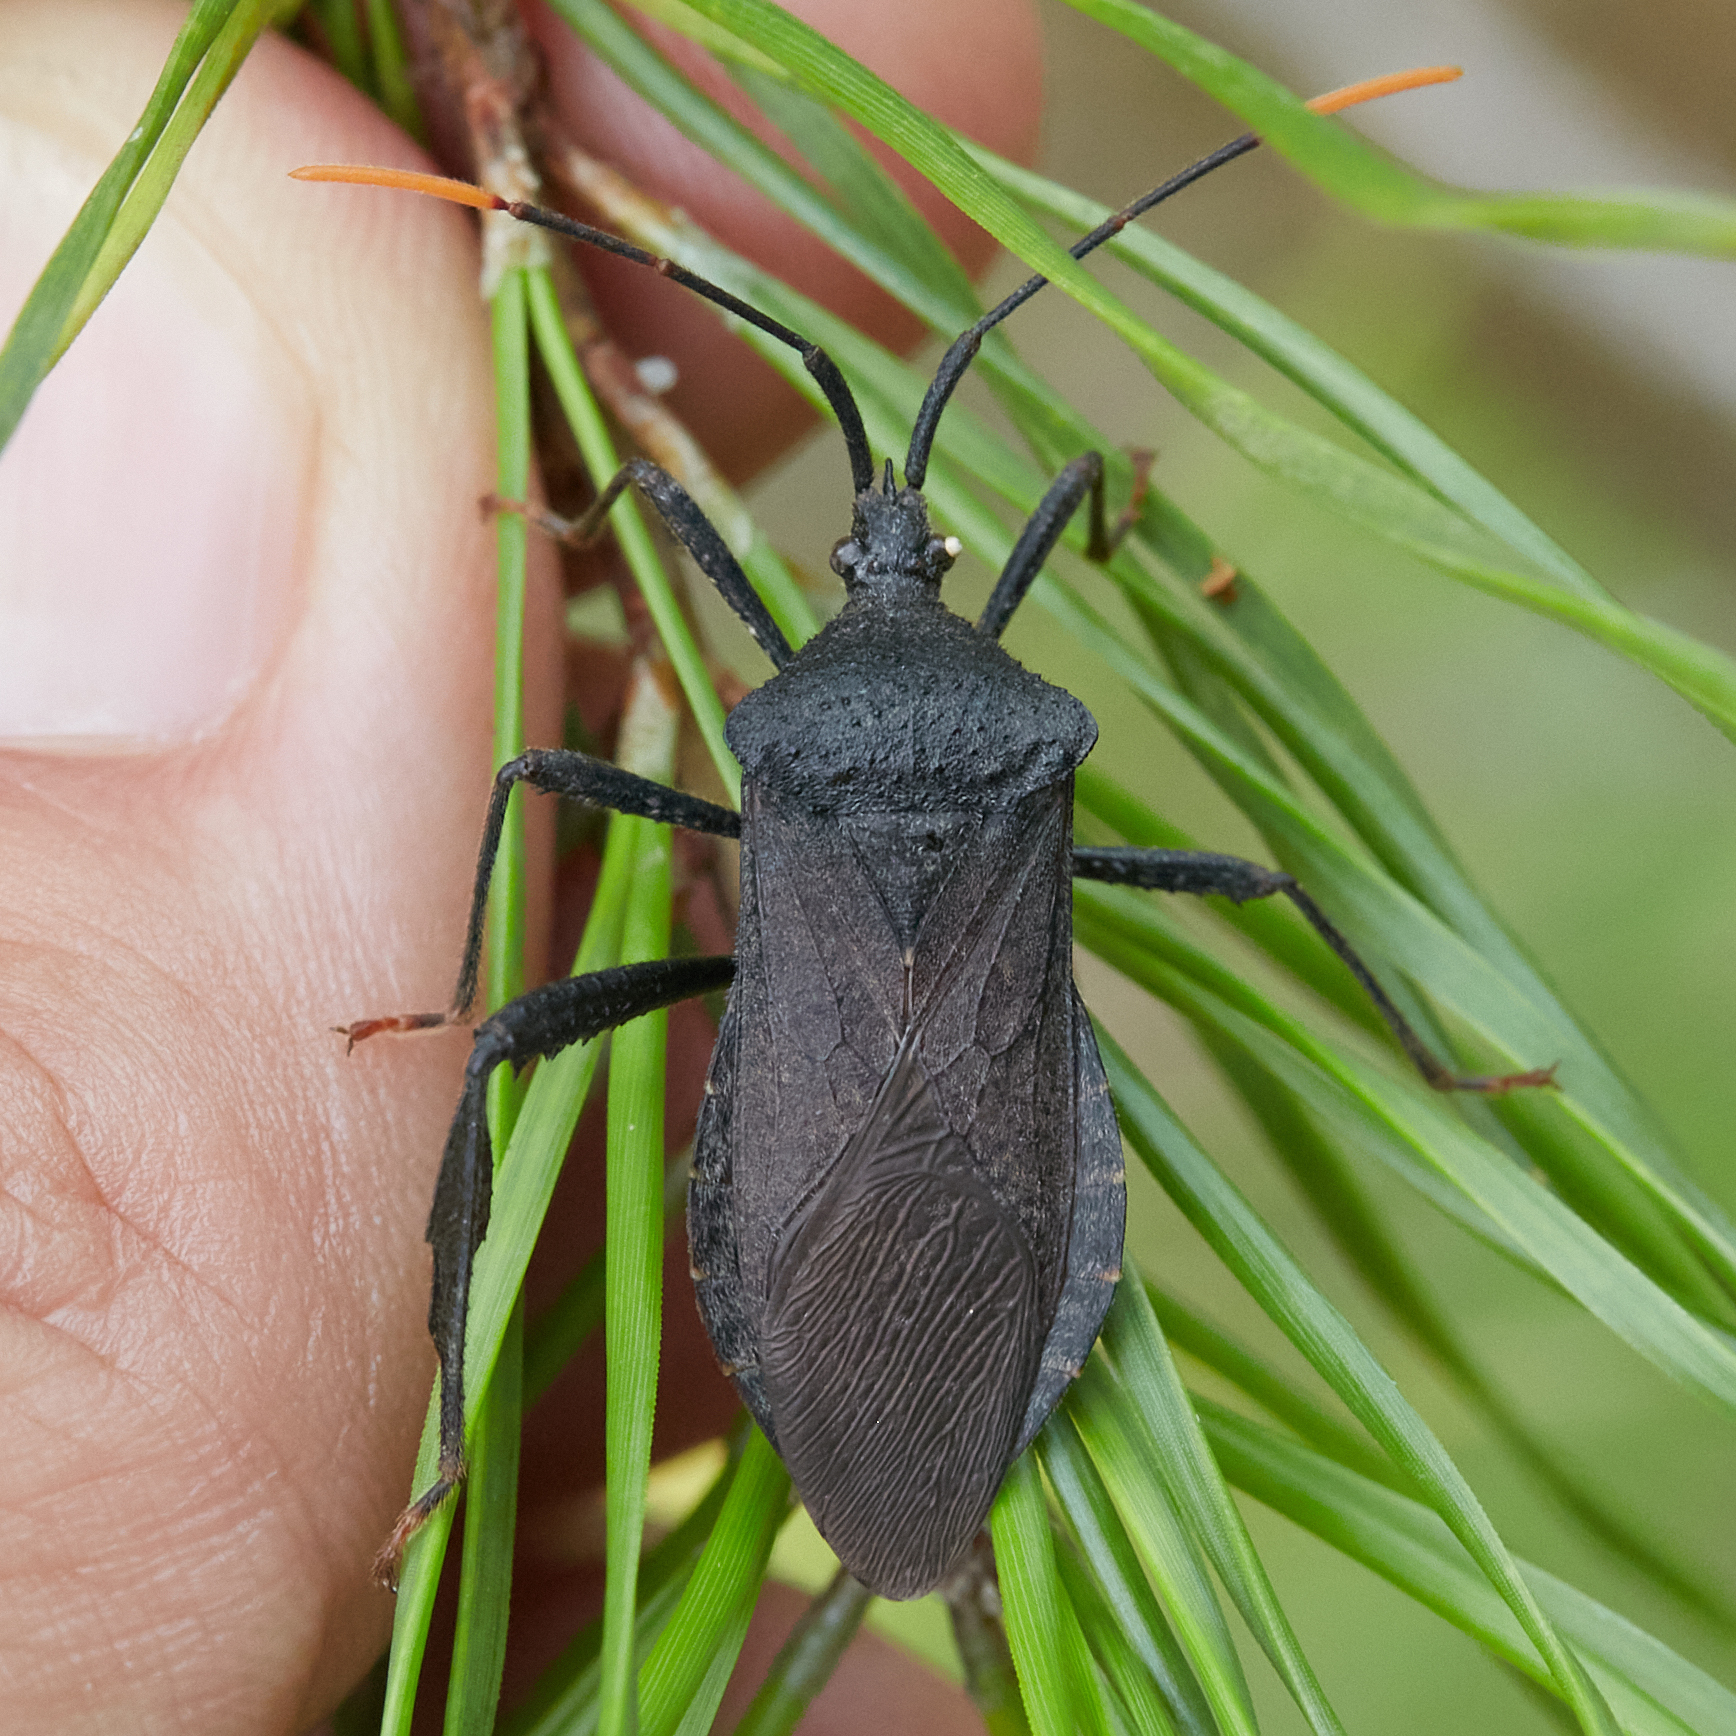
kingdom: Animalia
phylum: Arthropoda
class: Insecta
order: Hemiptera
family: Coreidae
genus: Acanthocephala
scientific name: Acanthocephala terminalis
